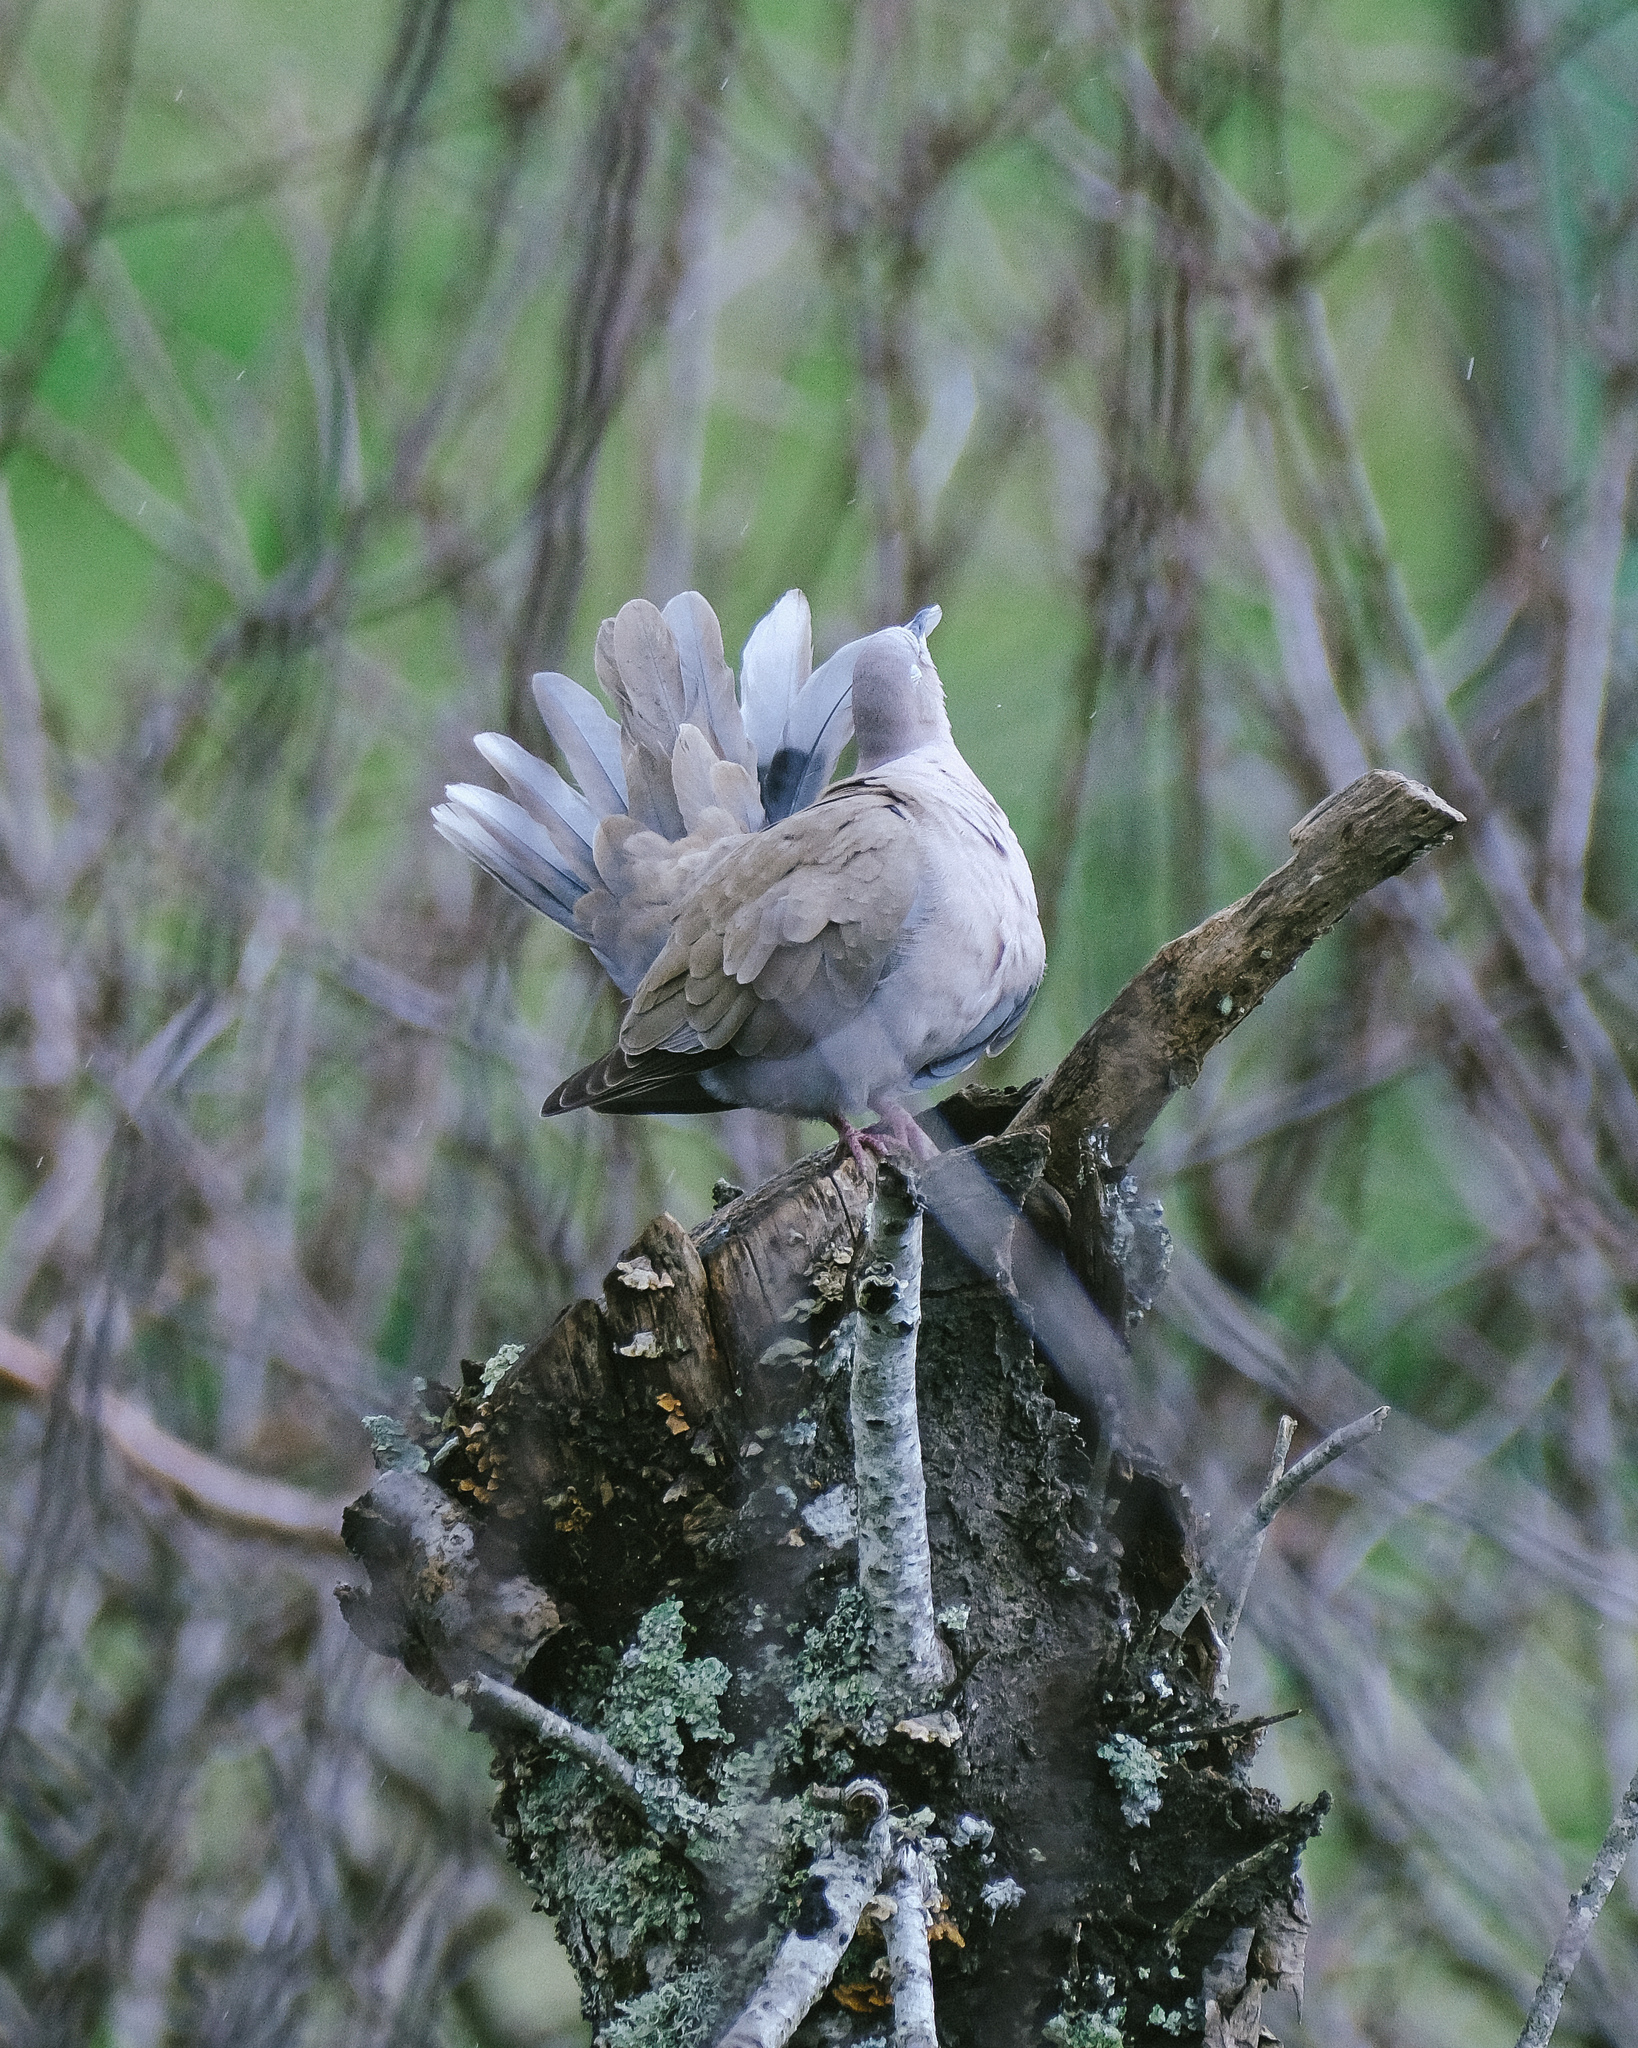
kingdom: Animalia
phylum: Chordata
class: Aves
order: Columbiformes
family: Columbidae
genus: Streptopelia
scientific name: Streptopelia decaocto
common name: Eurasian collared dove
